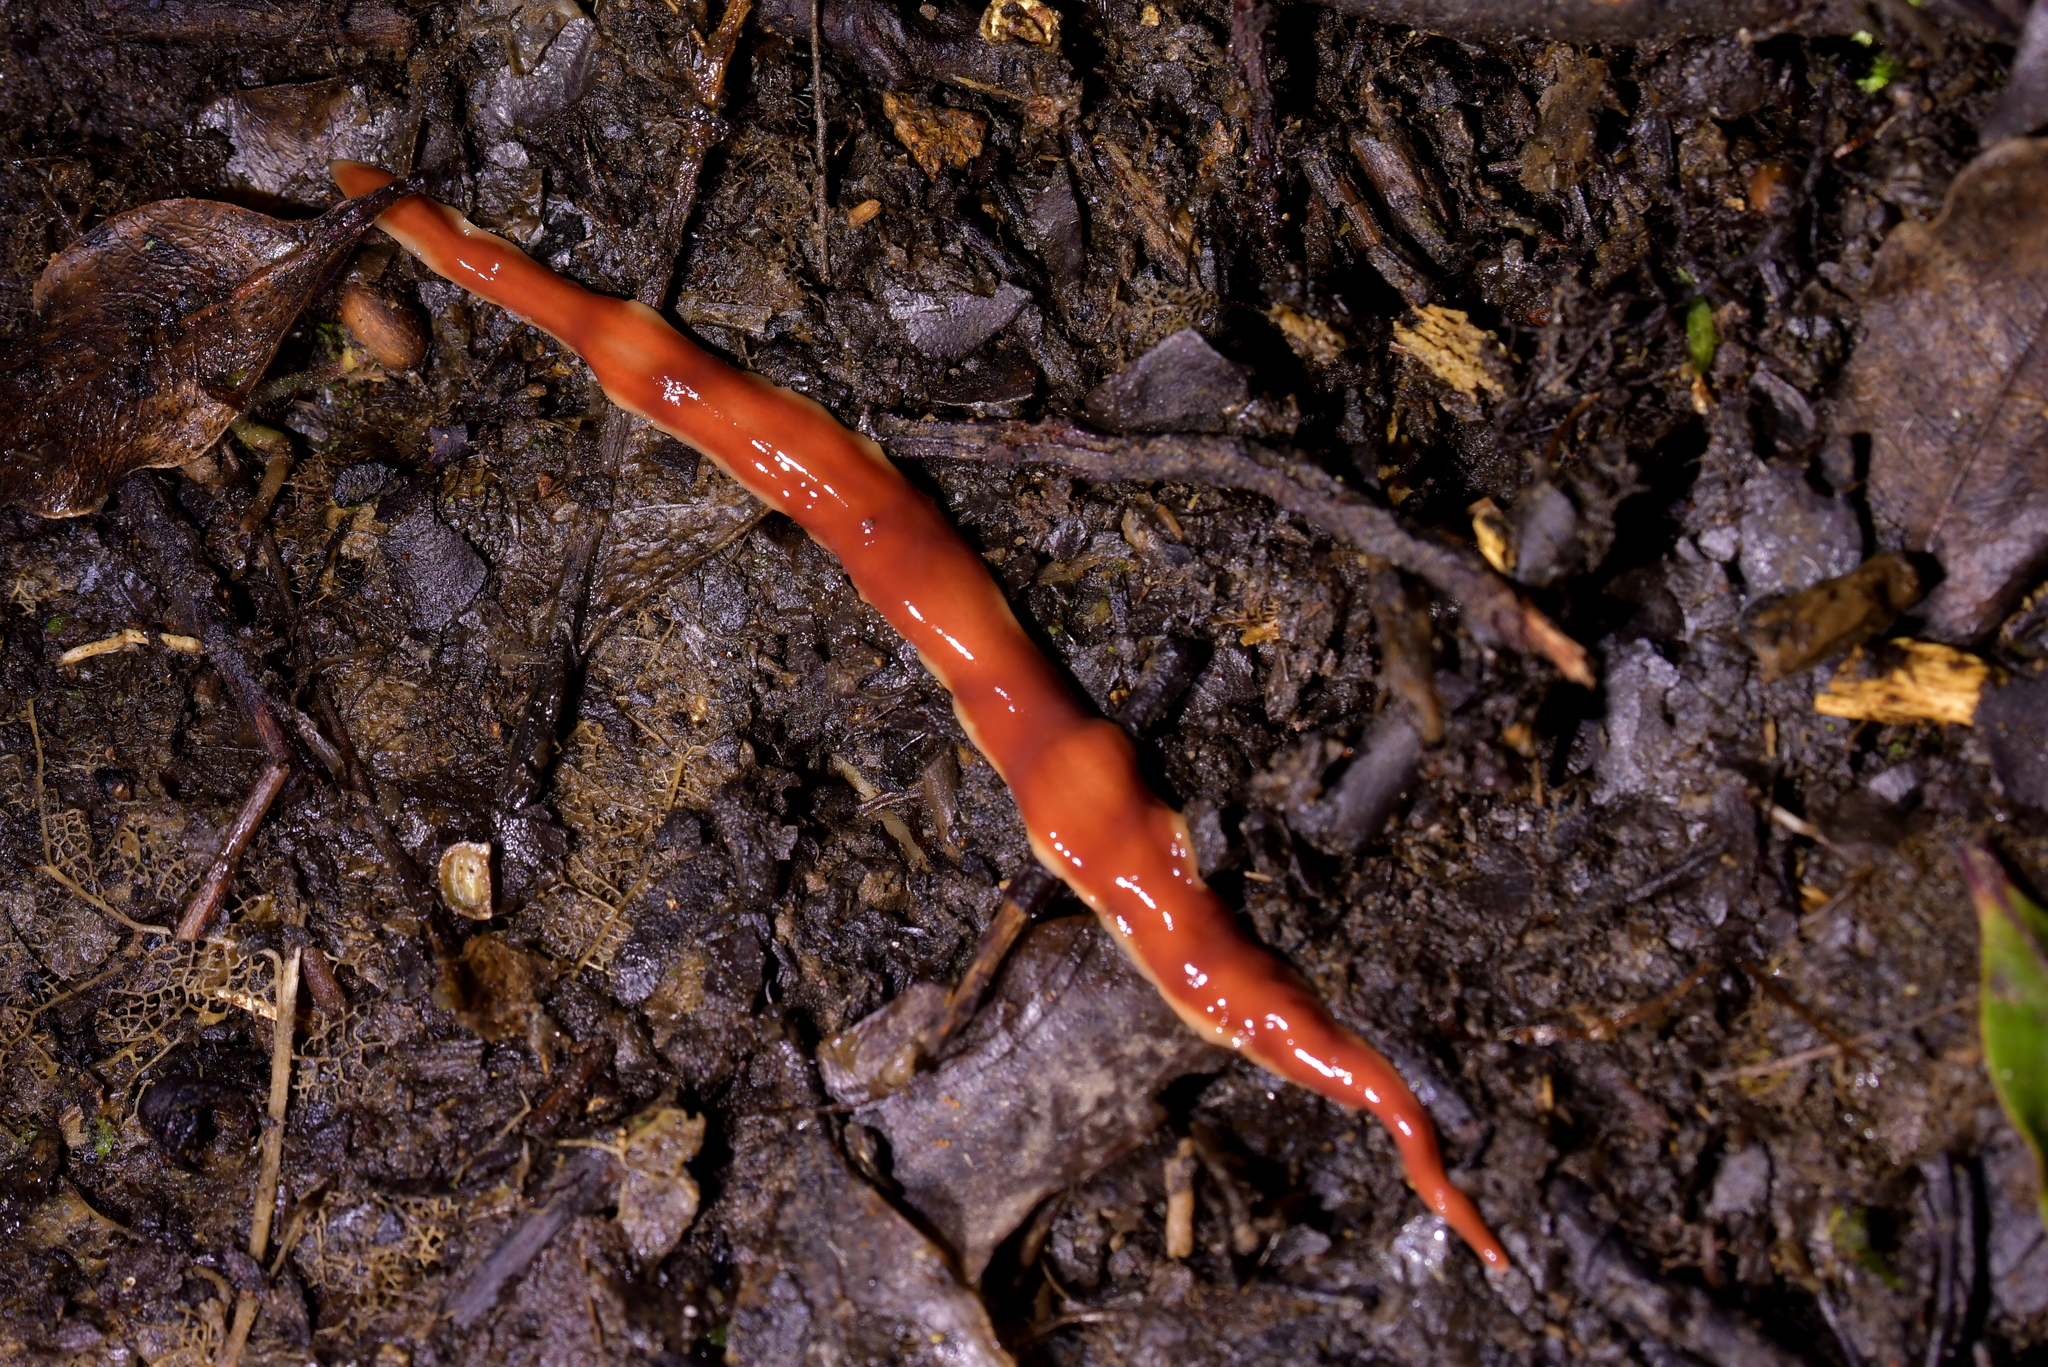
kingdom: Animalia
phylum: Platyhelminthes
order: Tricladida
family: Geoplanidae
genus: Arthurdendyus
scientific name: Arthurdendyus testaceus
